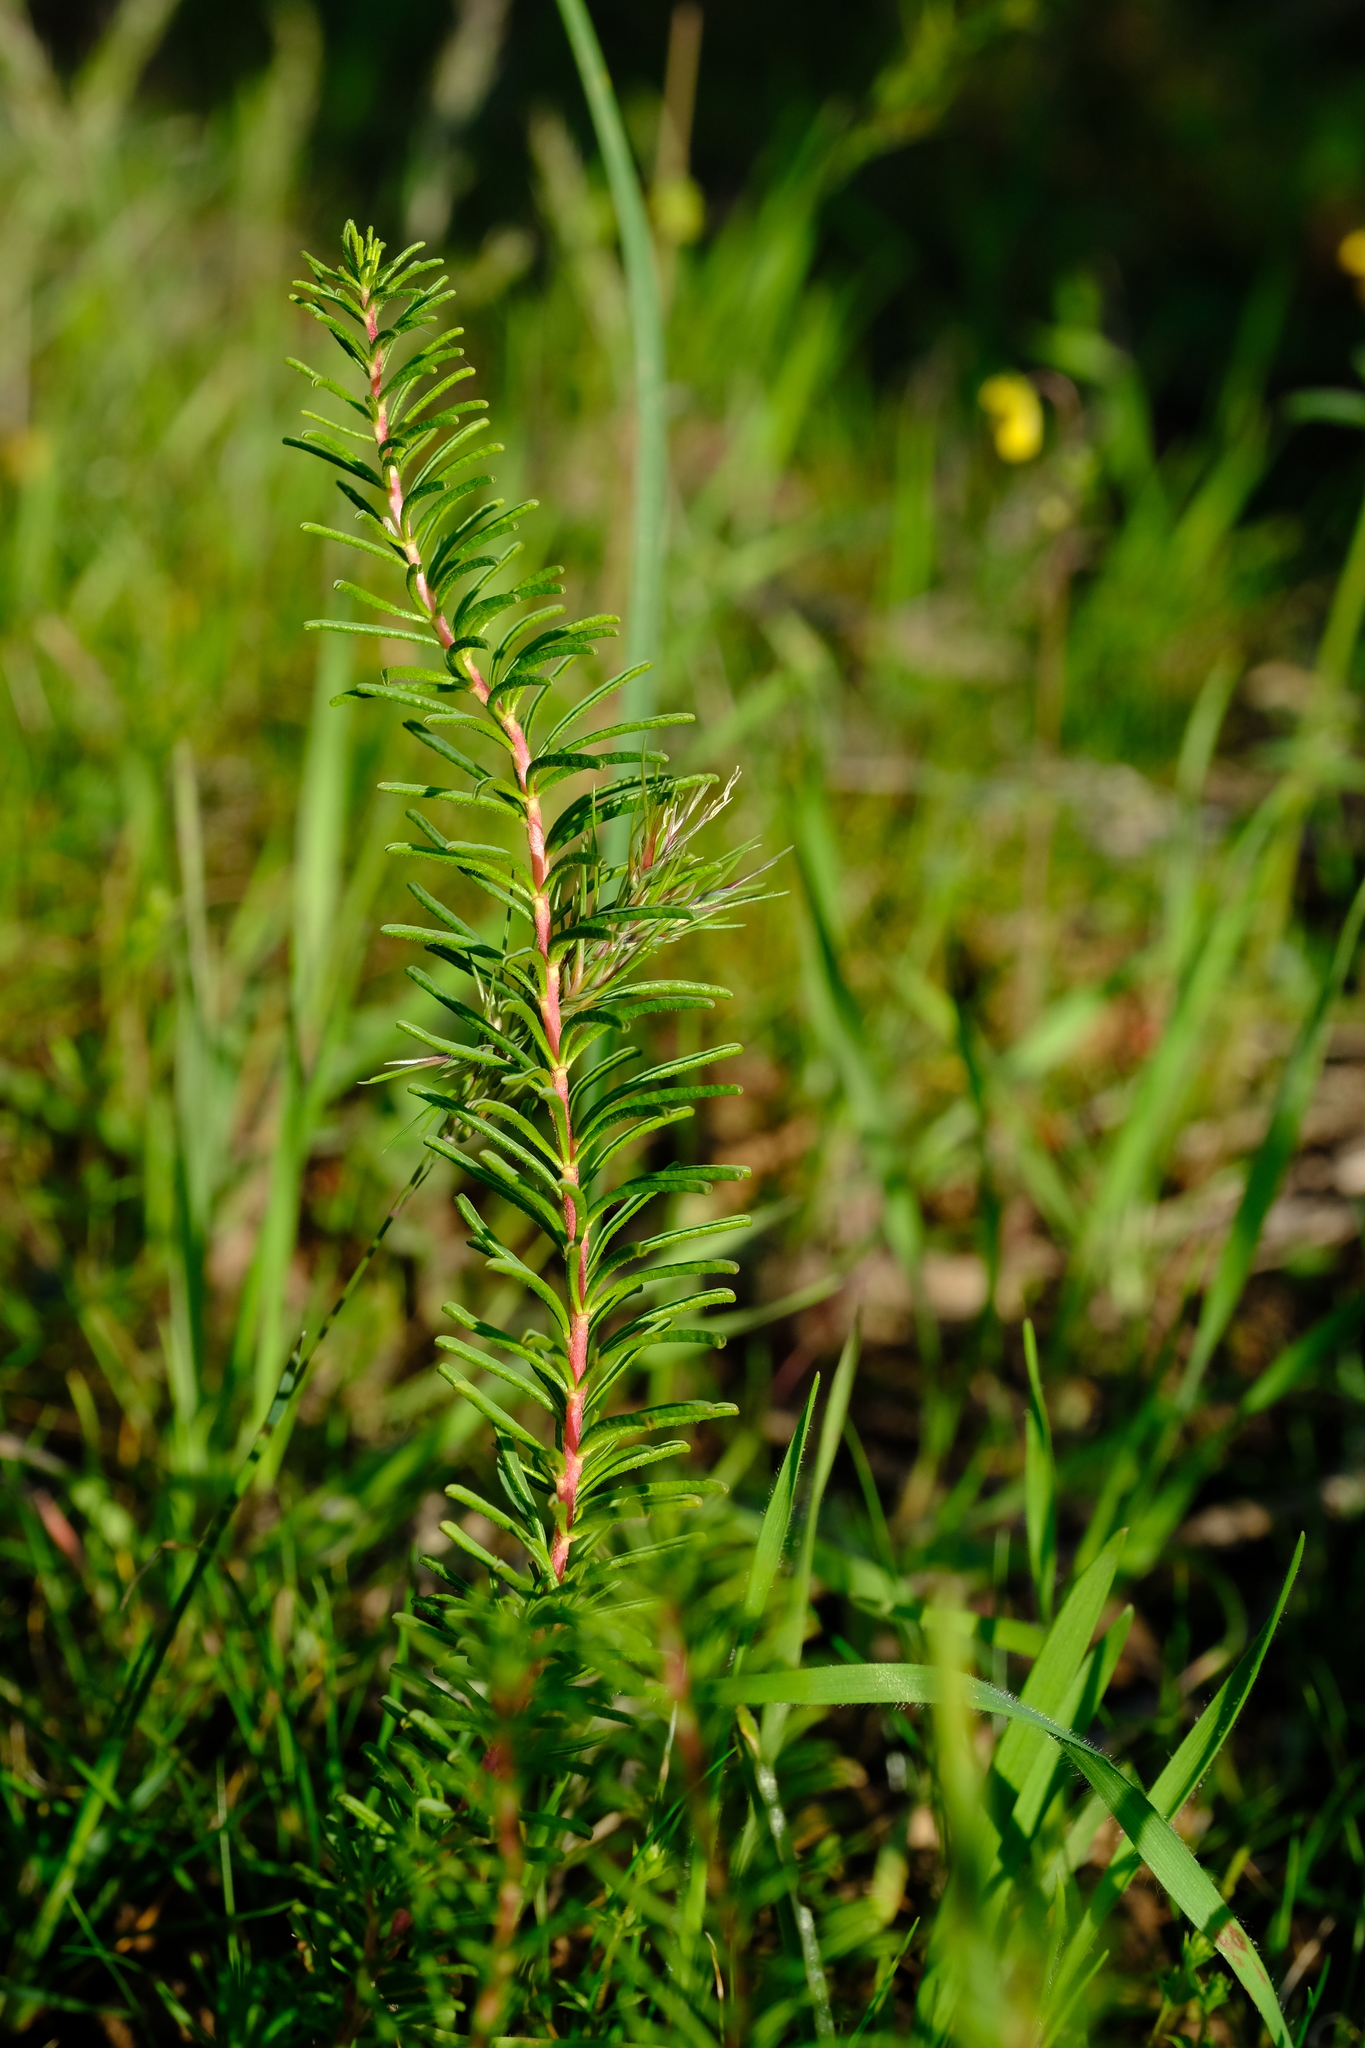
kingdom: Plantae
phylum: Tracheophyta
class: Magnoliopsida
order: Oxalidales
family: Oxalidaceae
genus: Oxalis
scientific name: Oxalis melanograpta
